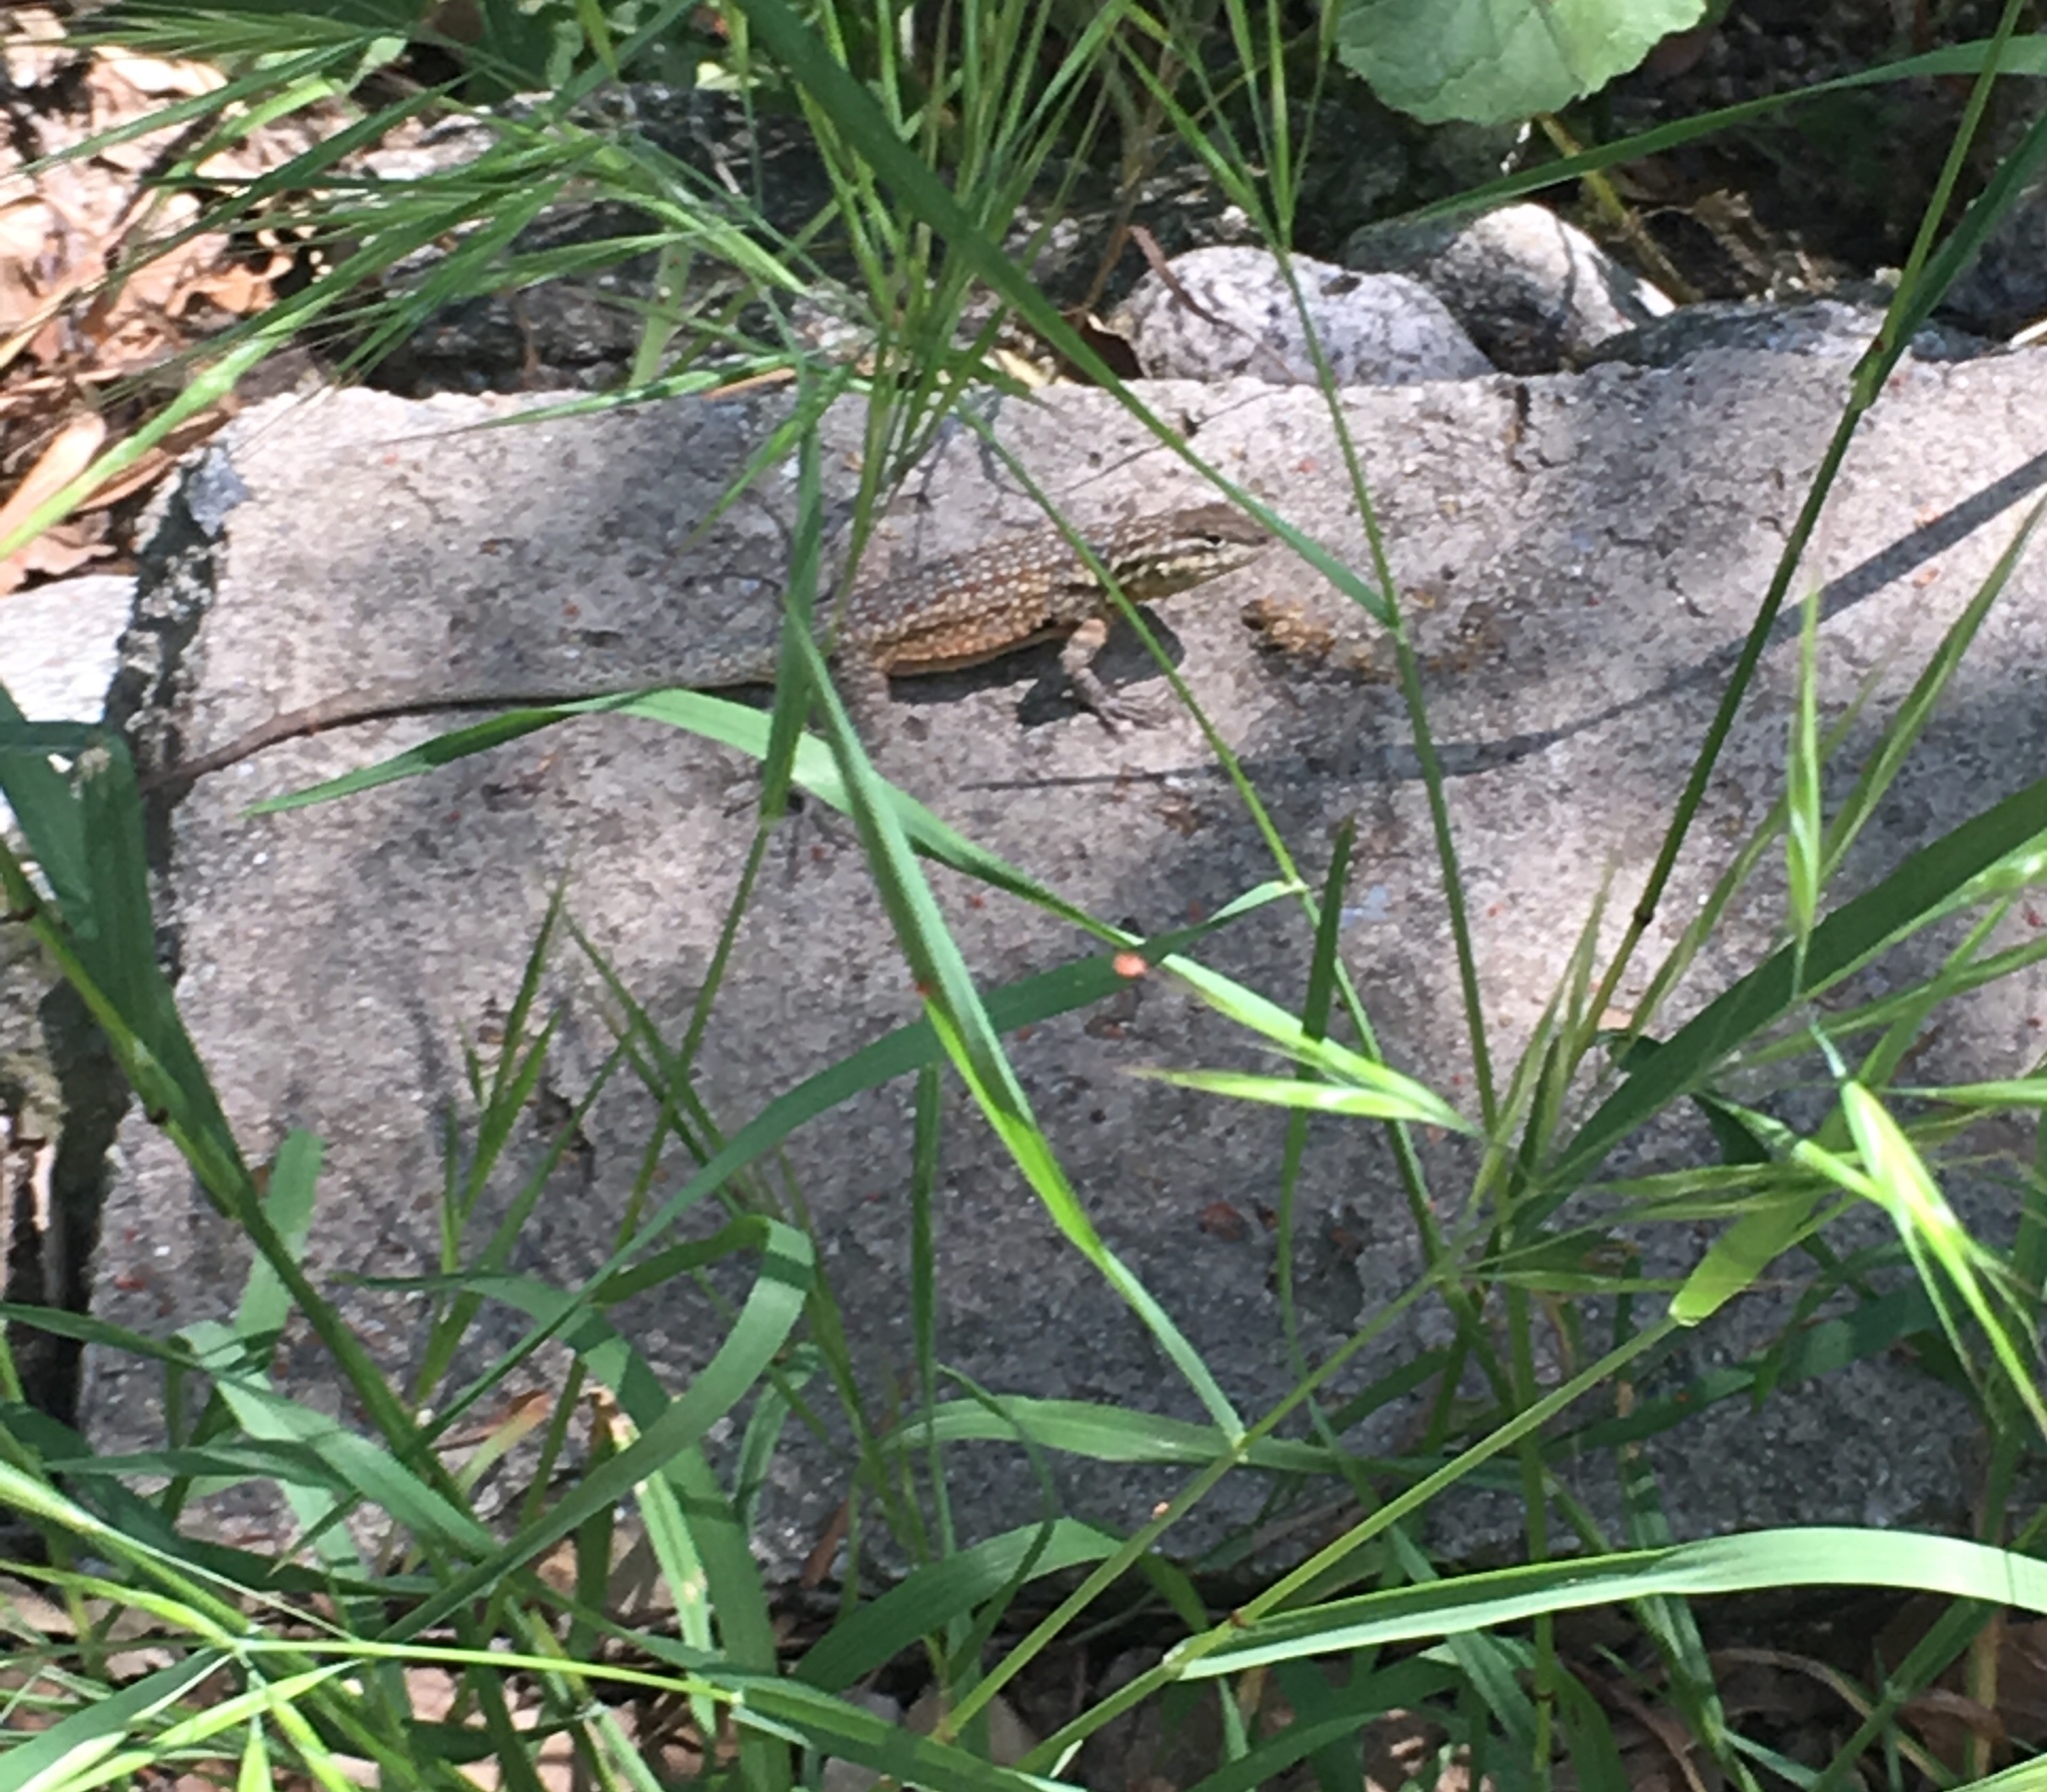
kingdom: Animalia
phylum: Chordata
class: Squamata
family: Phrynosomatidae
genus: Uta
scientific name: Uta stansburiana
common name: Side-blotched lizard
